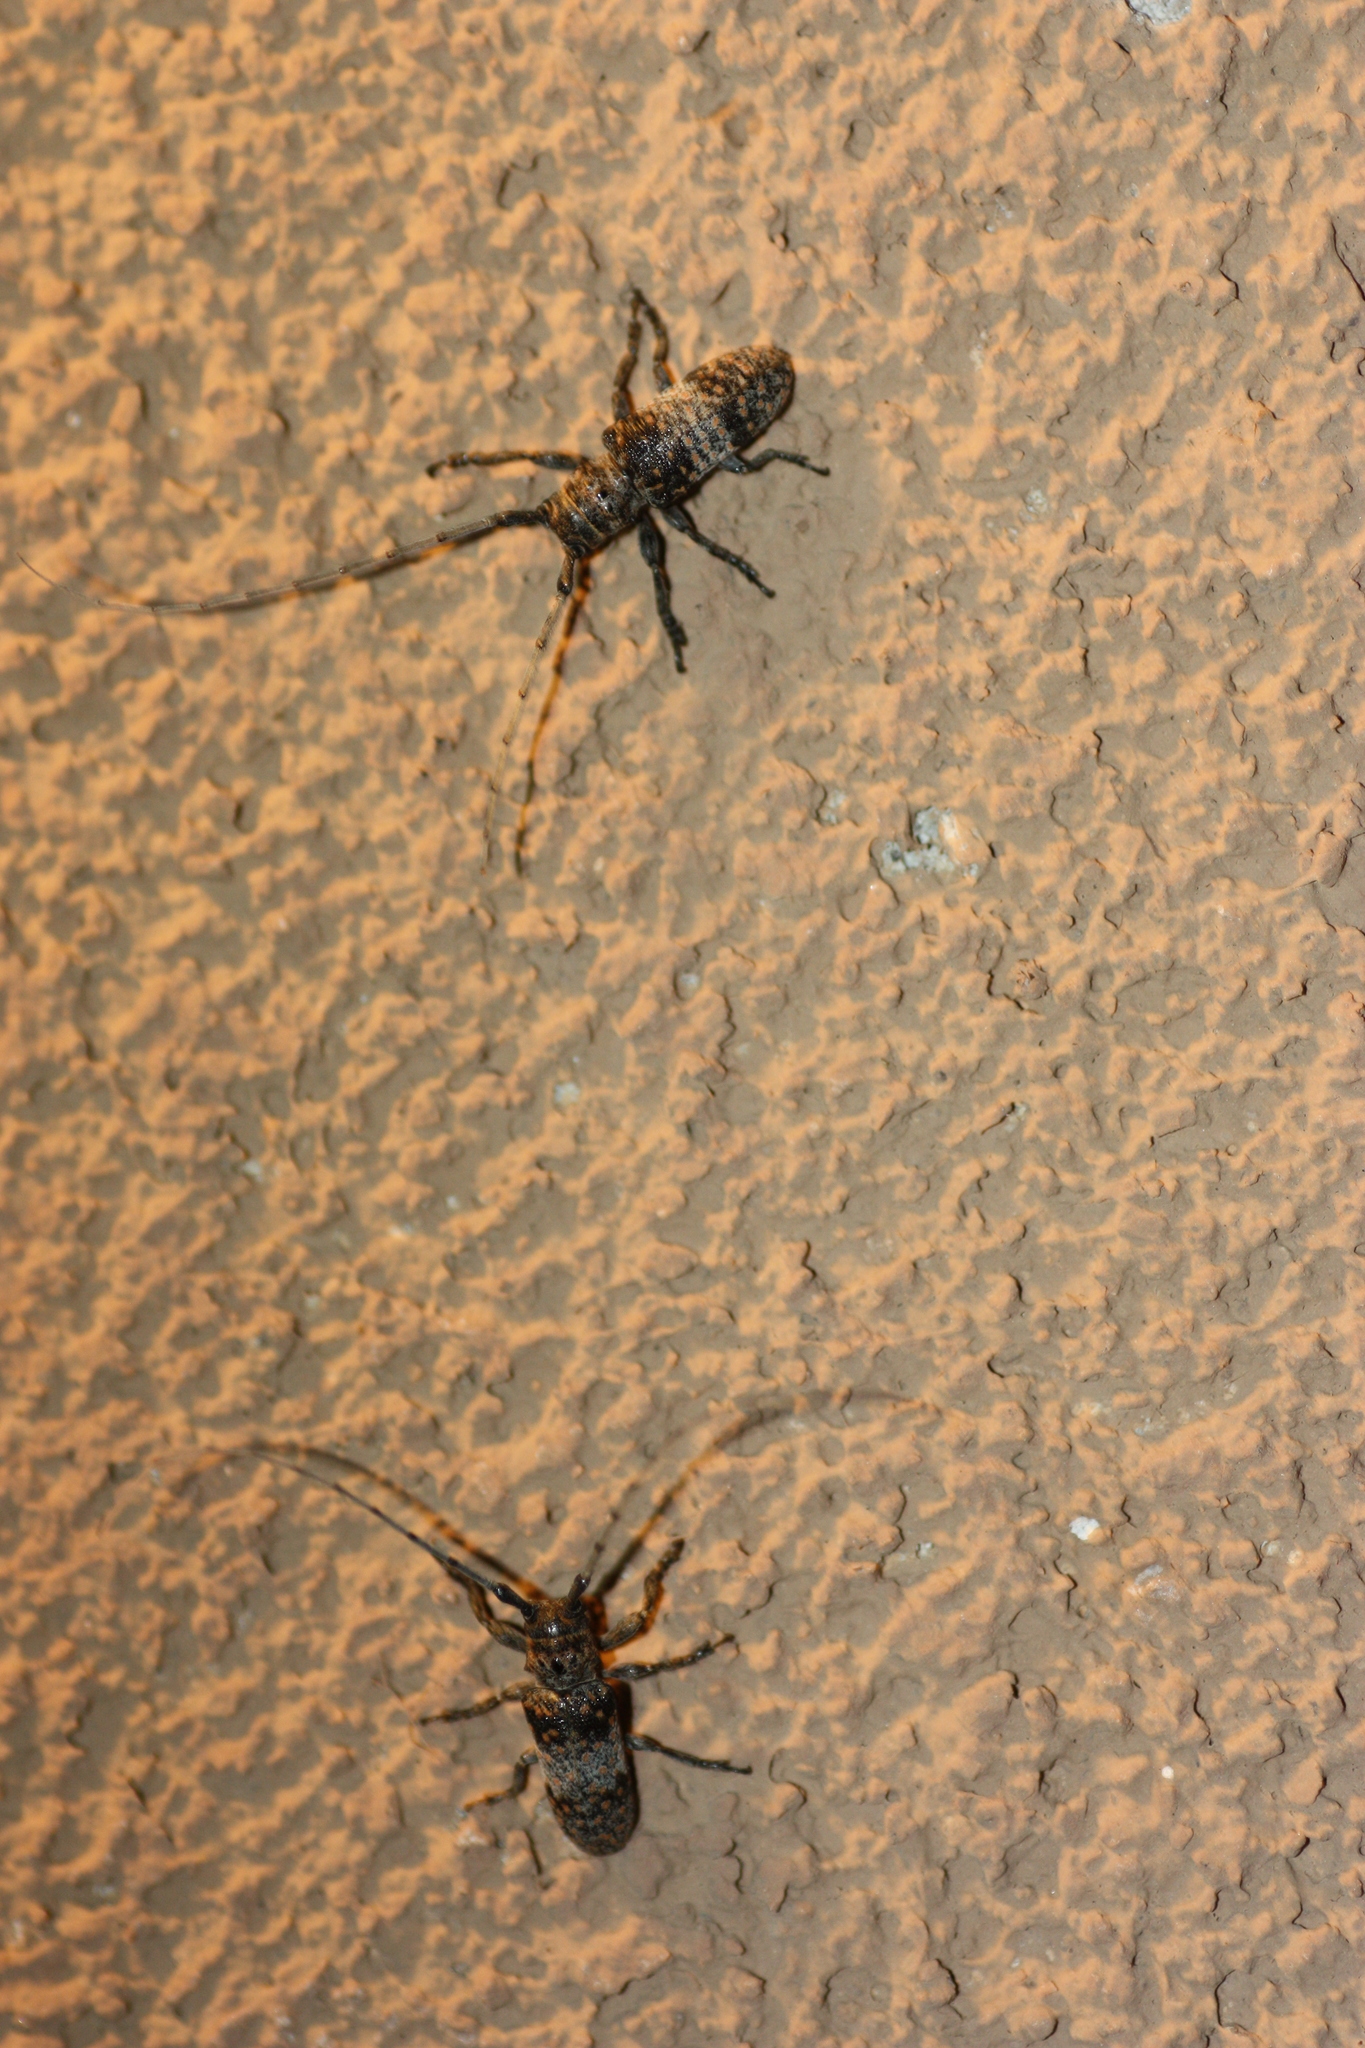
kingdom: Animalia
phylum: Arthropoda
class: Insecta
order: Coleoptera
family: Cerambycidae
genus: Oncideres
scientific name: Oncideres rhodosticta
